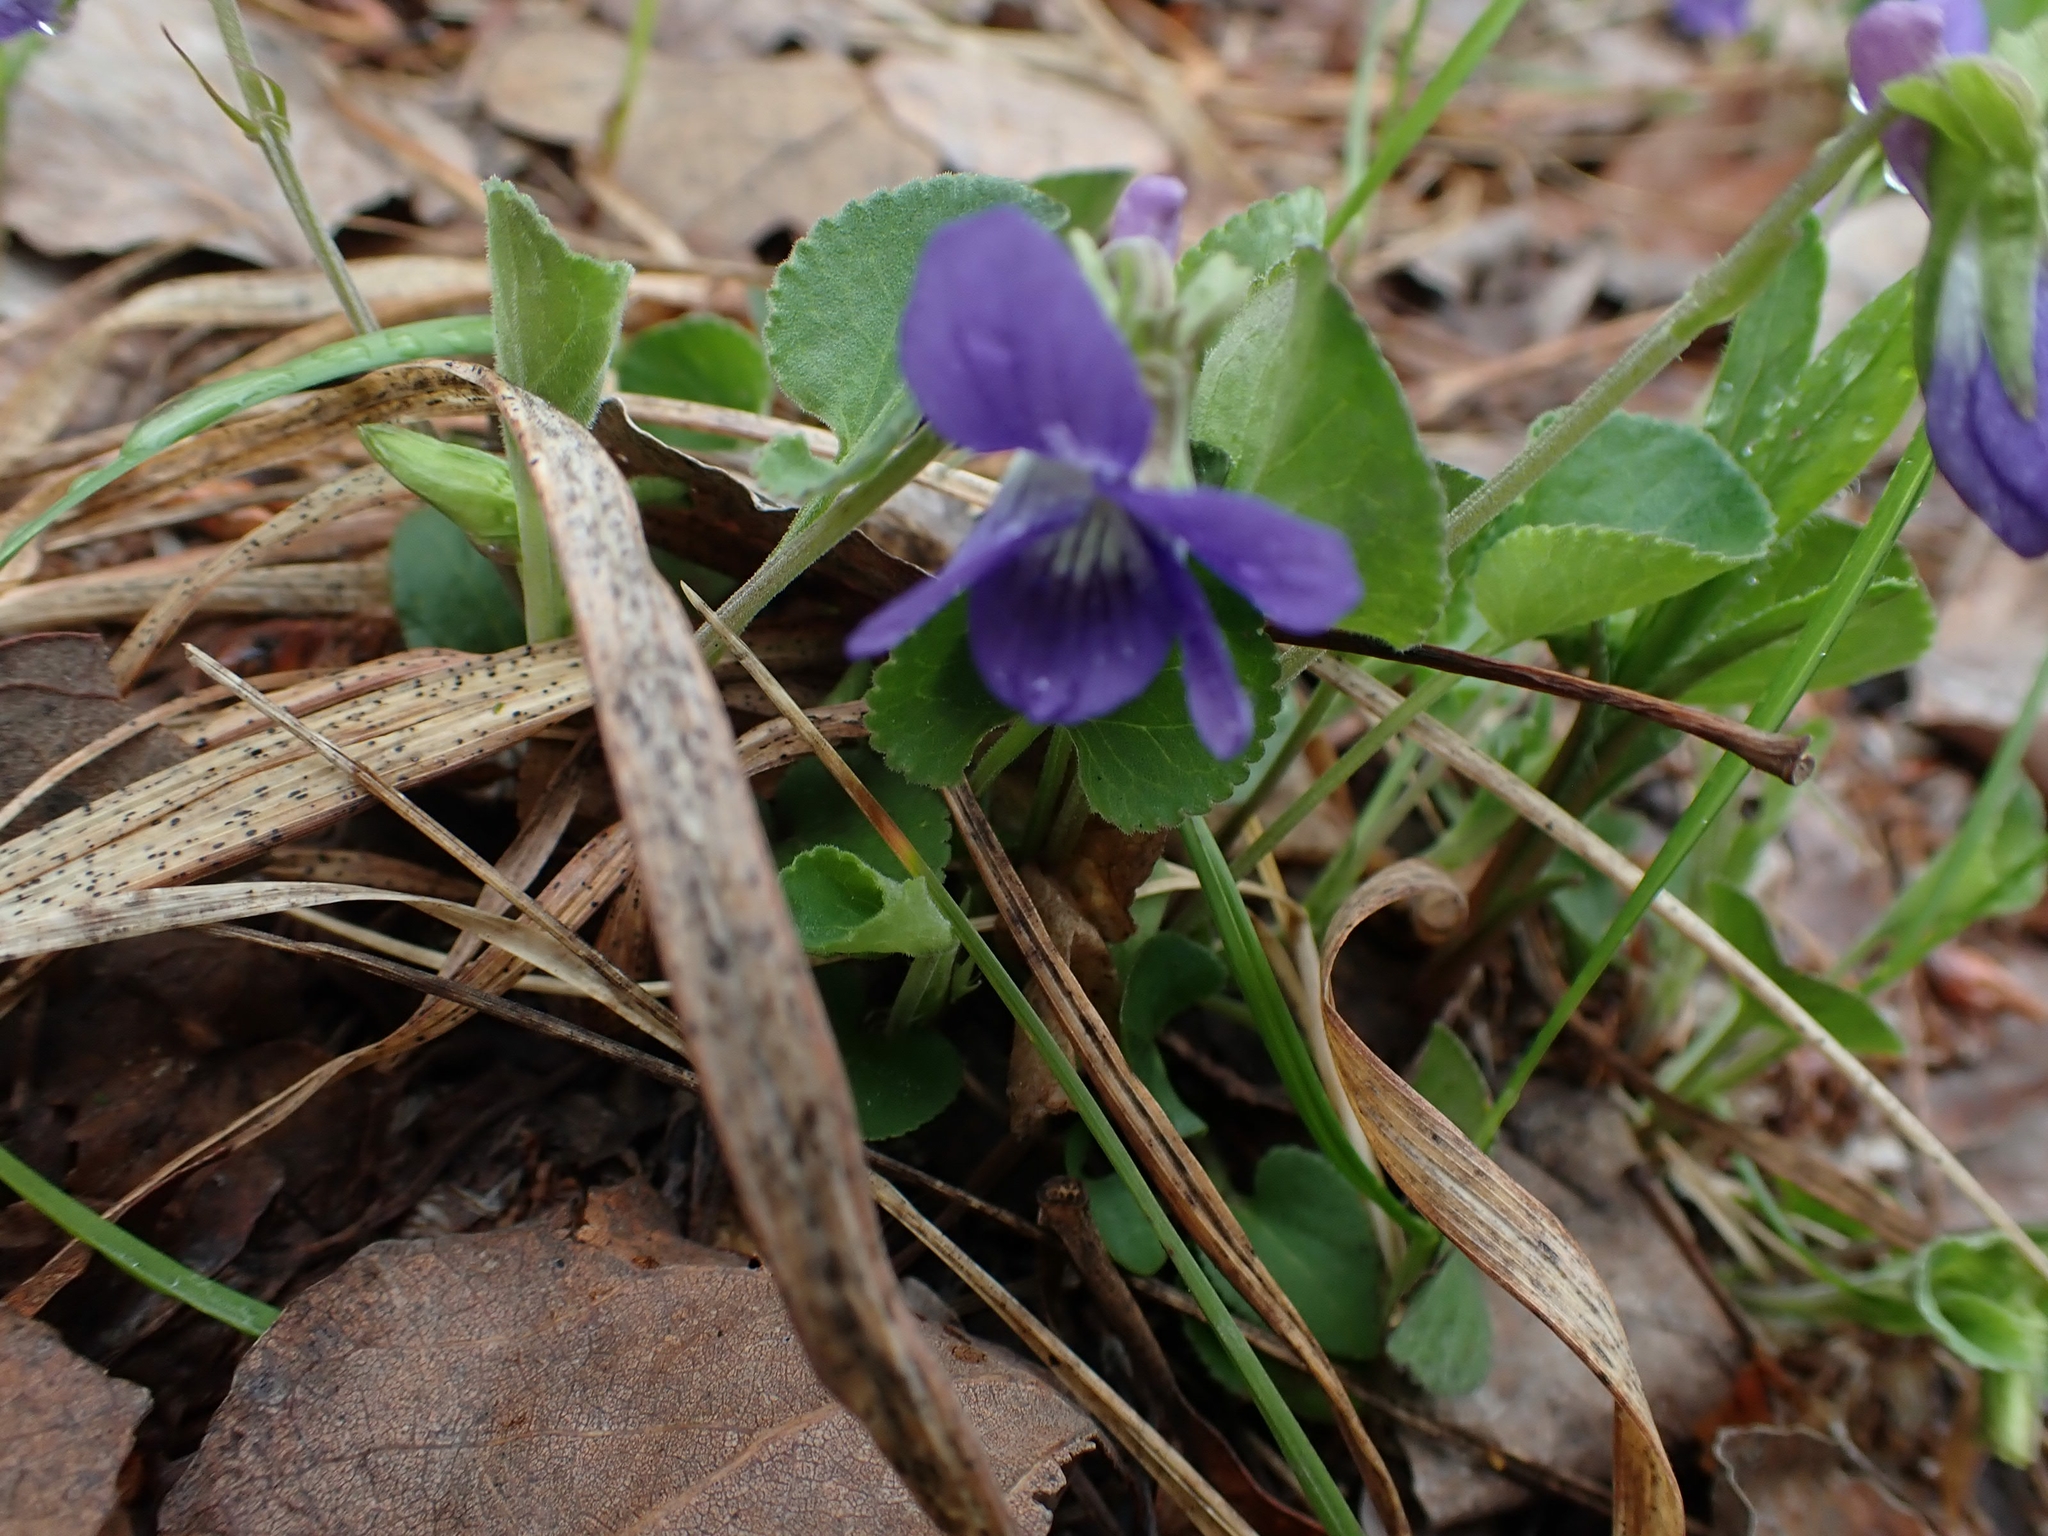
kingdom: Plantae
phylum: Tracheophyta
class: Magnoliopsida
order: Malpighiales
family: Violaceae
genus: Viola
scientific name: Viola adunca
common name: Sand violet
